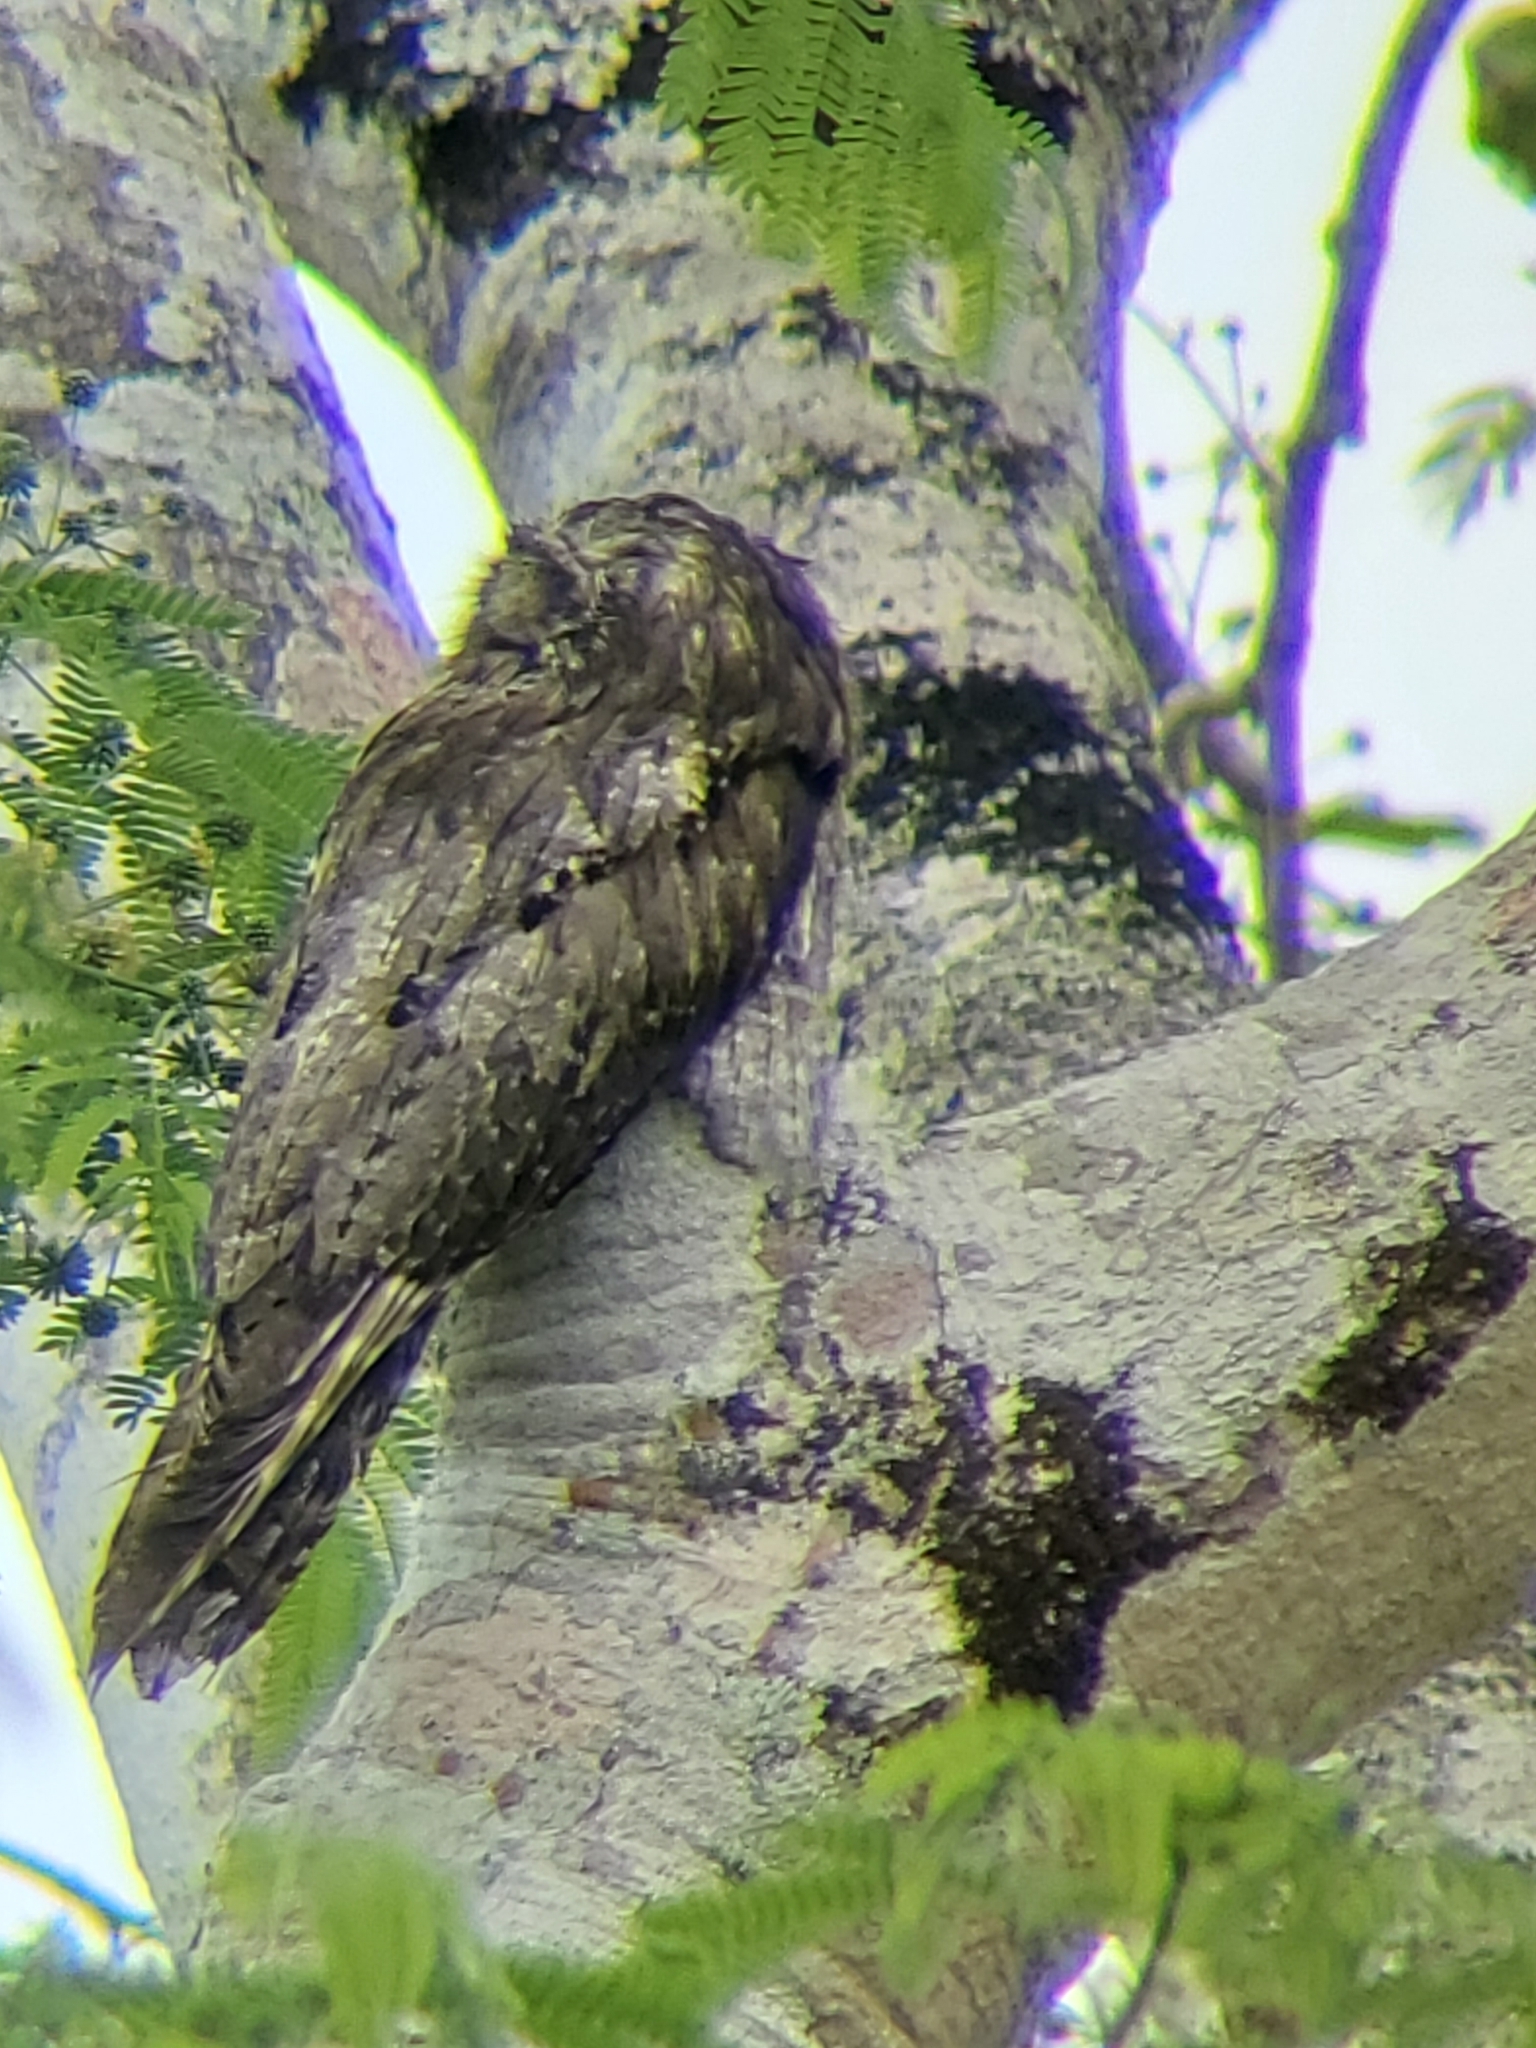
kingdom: Animalia
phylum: Chordata
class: Aves
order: Nyctibiiformes
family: Nyctibiidae
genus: Nyctibius
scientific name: Nyctibius jamaicensis
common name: Northern potoo
